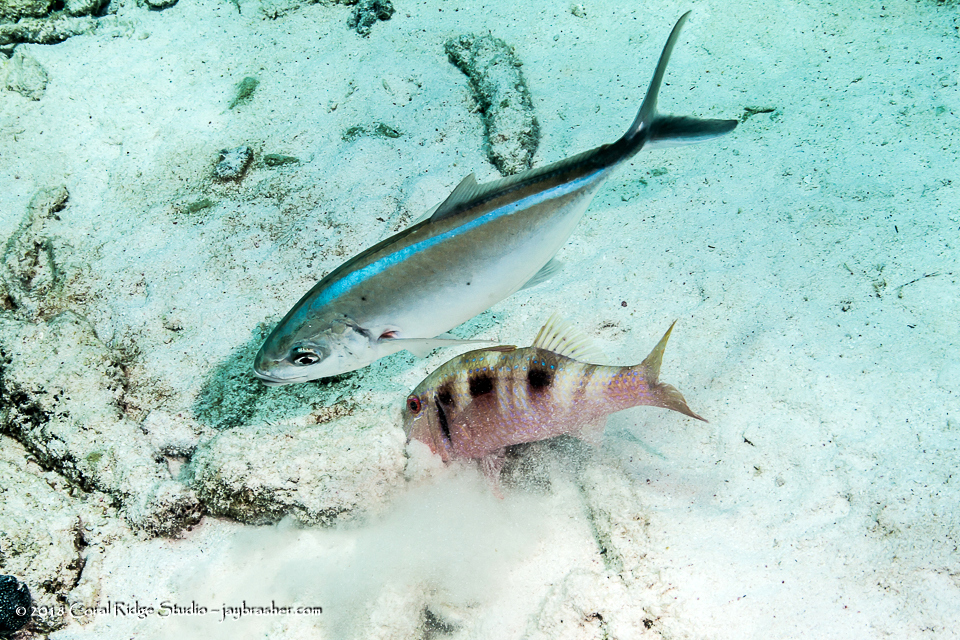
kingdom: Animalia
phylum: Chordata
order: Perciformes
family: Carangidae
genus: Caranx
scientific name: Caranx ruber
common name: Bar jack
